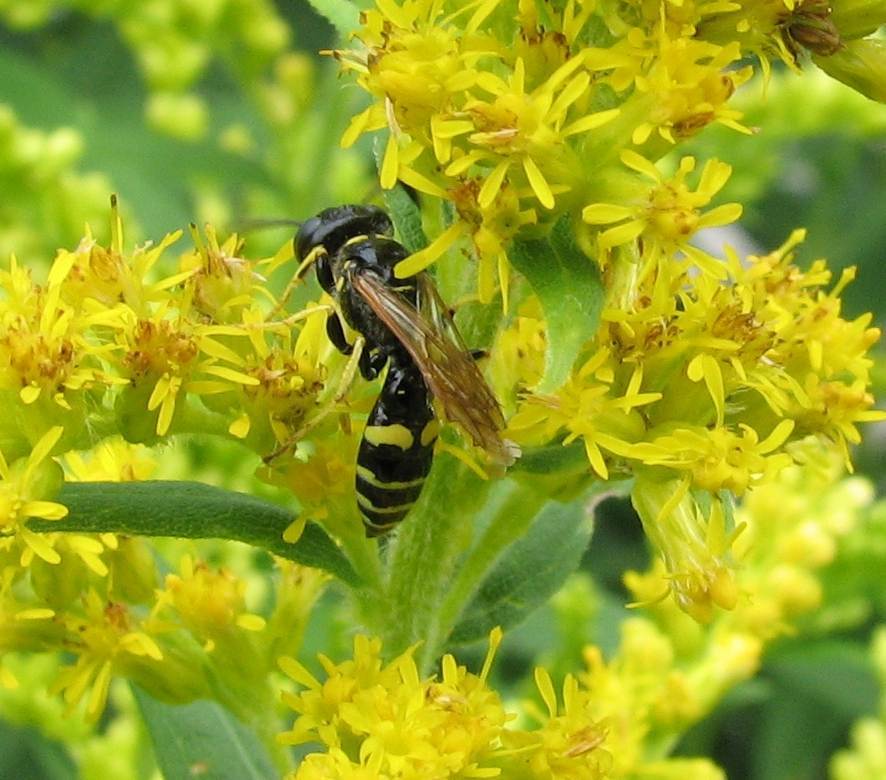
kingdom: Animalia
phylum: Arthropoda
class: Insecta
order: Hymenoptera
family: Crabronidae
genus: Philanthus
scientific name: Philanthus bilunatus
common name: Two moons beewolf
